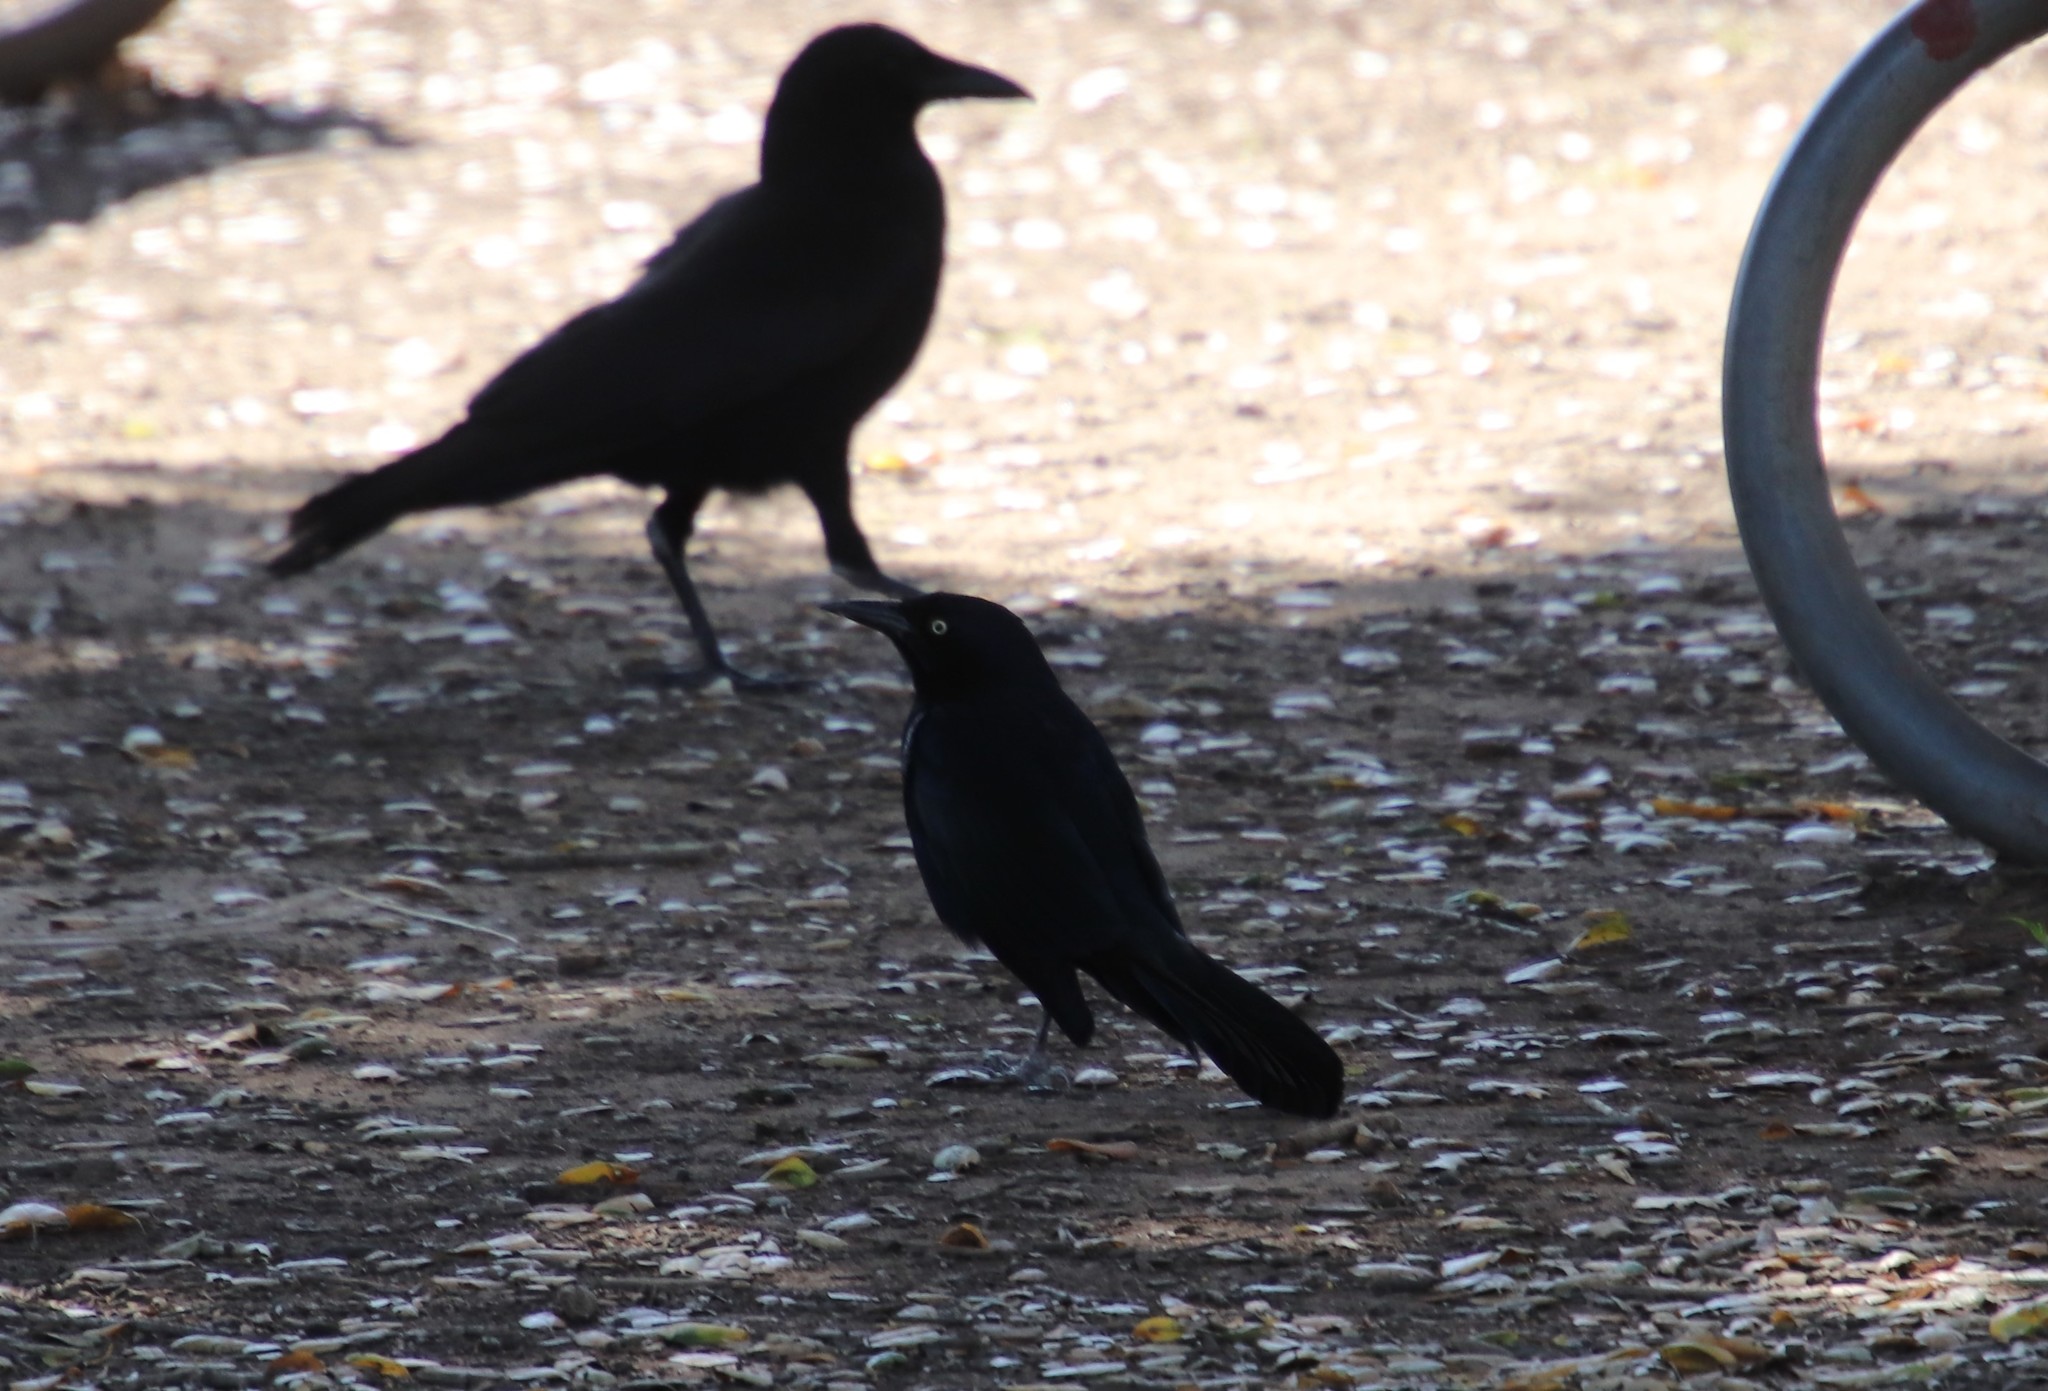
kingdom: Animalia
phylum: Chordata
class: Aves
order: Passeriformes
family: Icteridae
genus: Quiscalus
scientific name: Quiscalus mexicanus
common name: Great-tailed grackle
